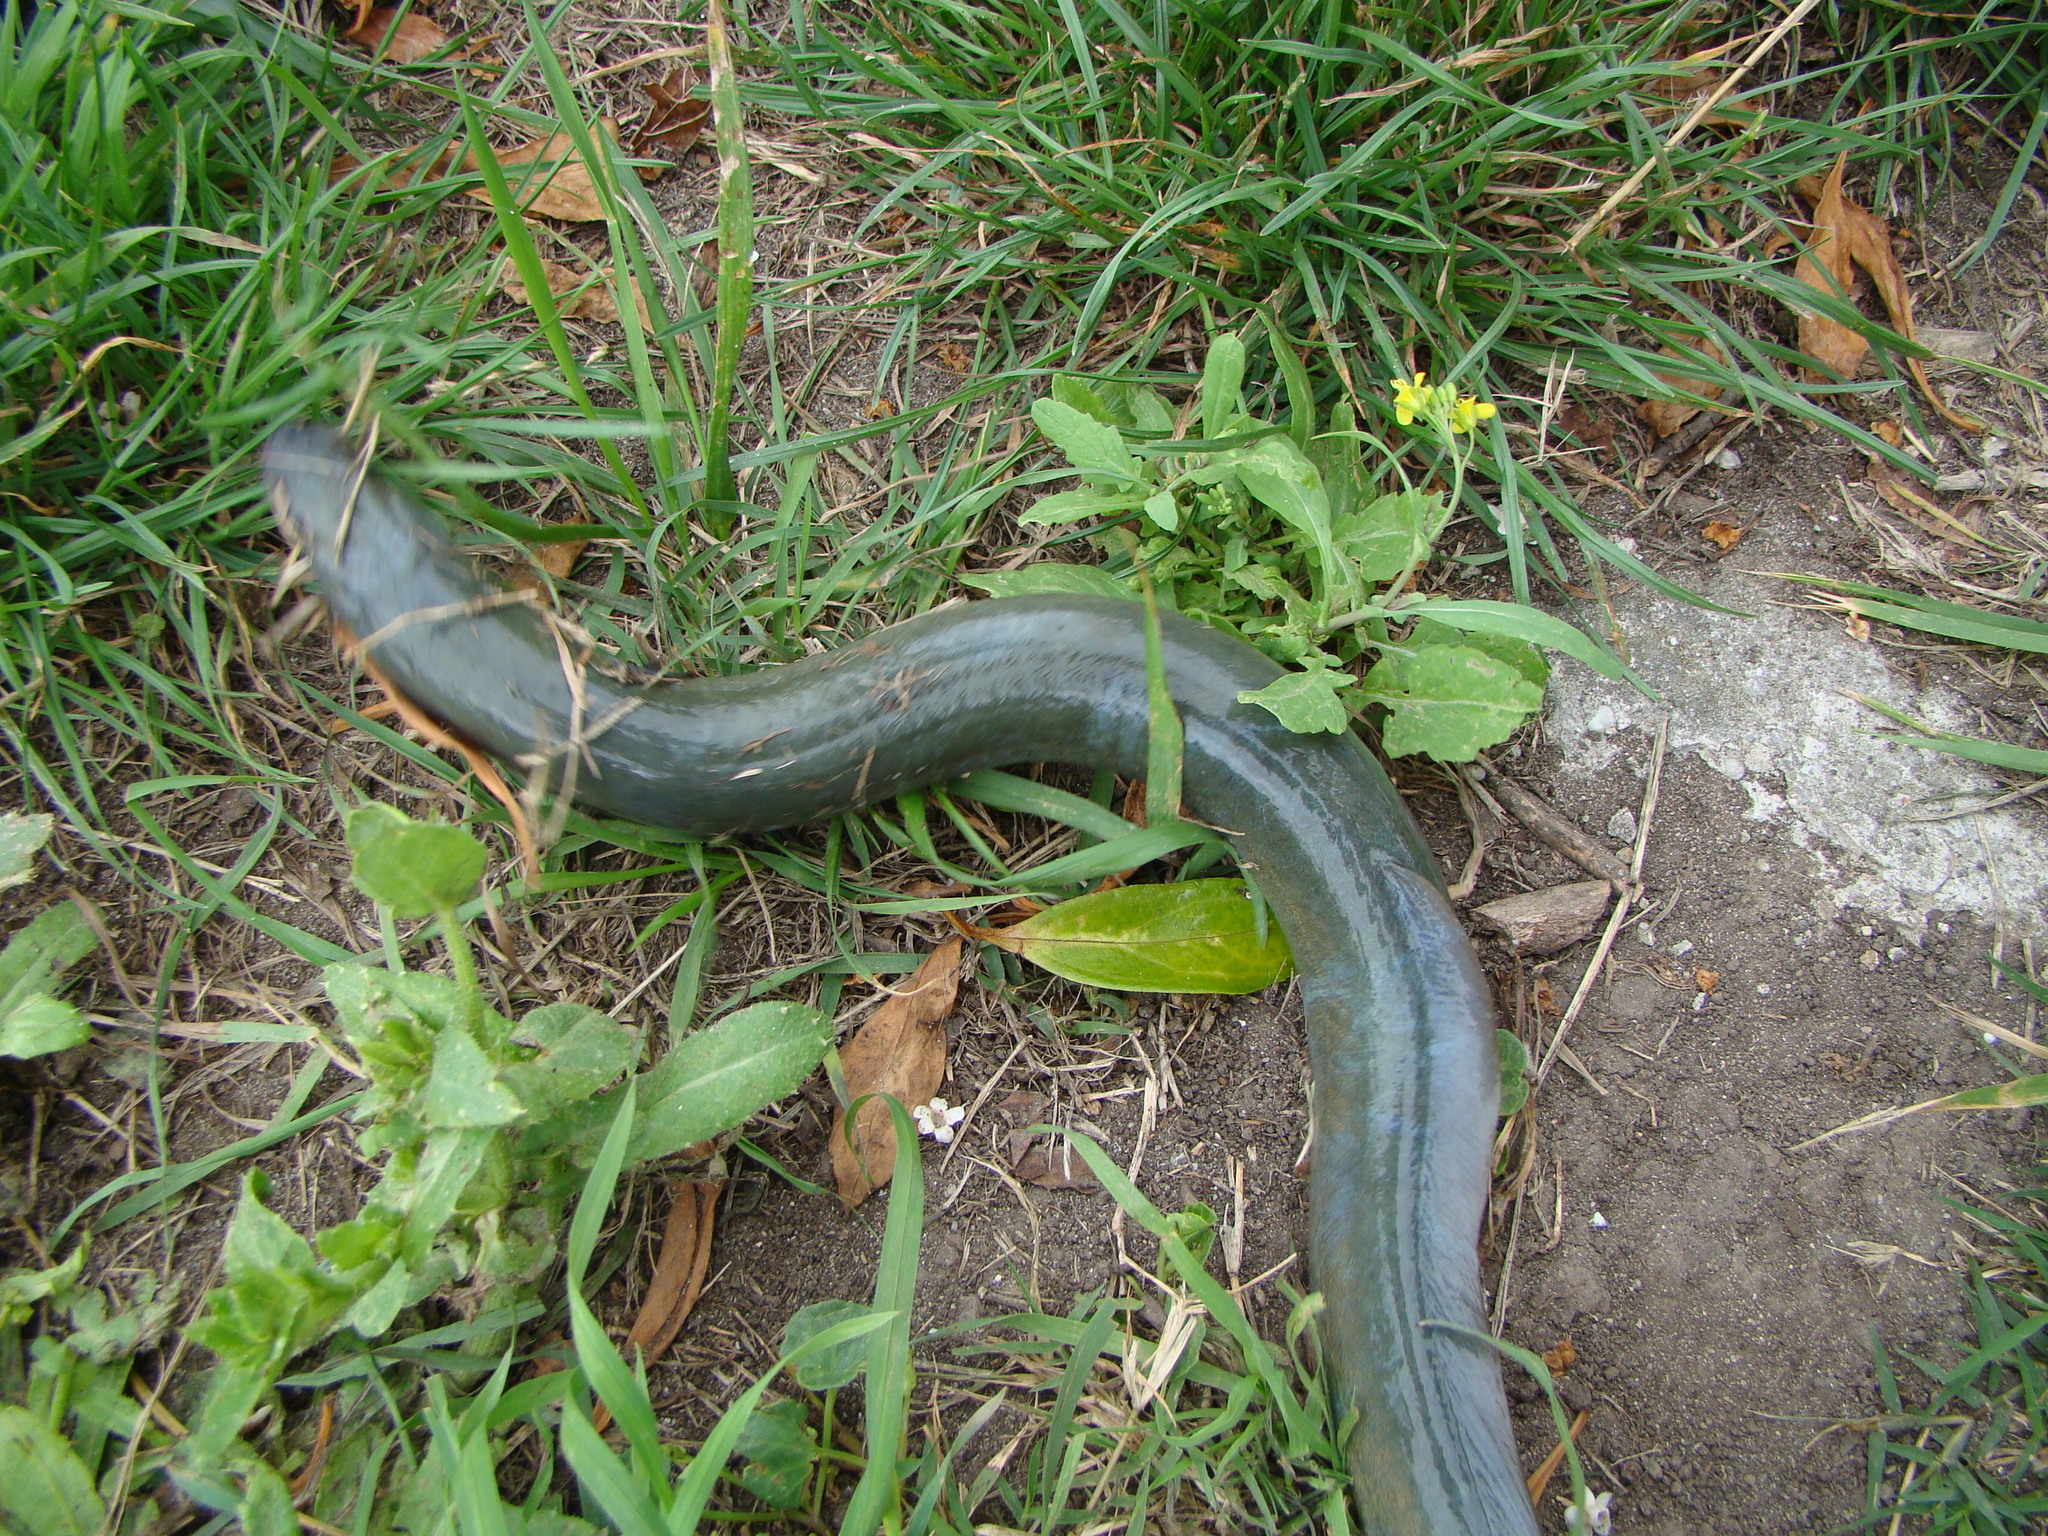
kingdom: Animalia
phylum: Chordata
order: Anguilliformes
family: Anguillidae
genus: Anguilla
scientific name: Anguilla australis
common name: Shortfin eel
